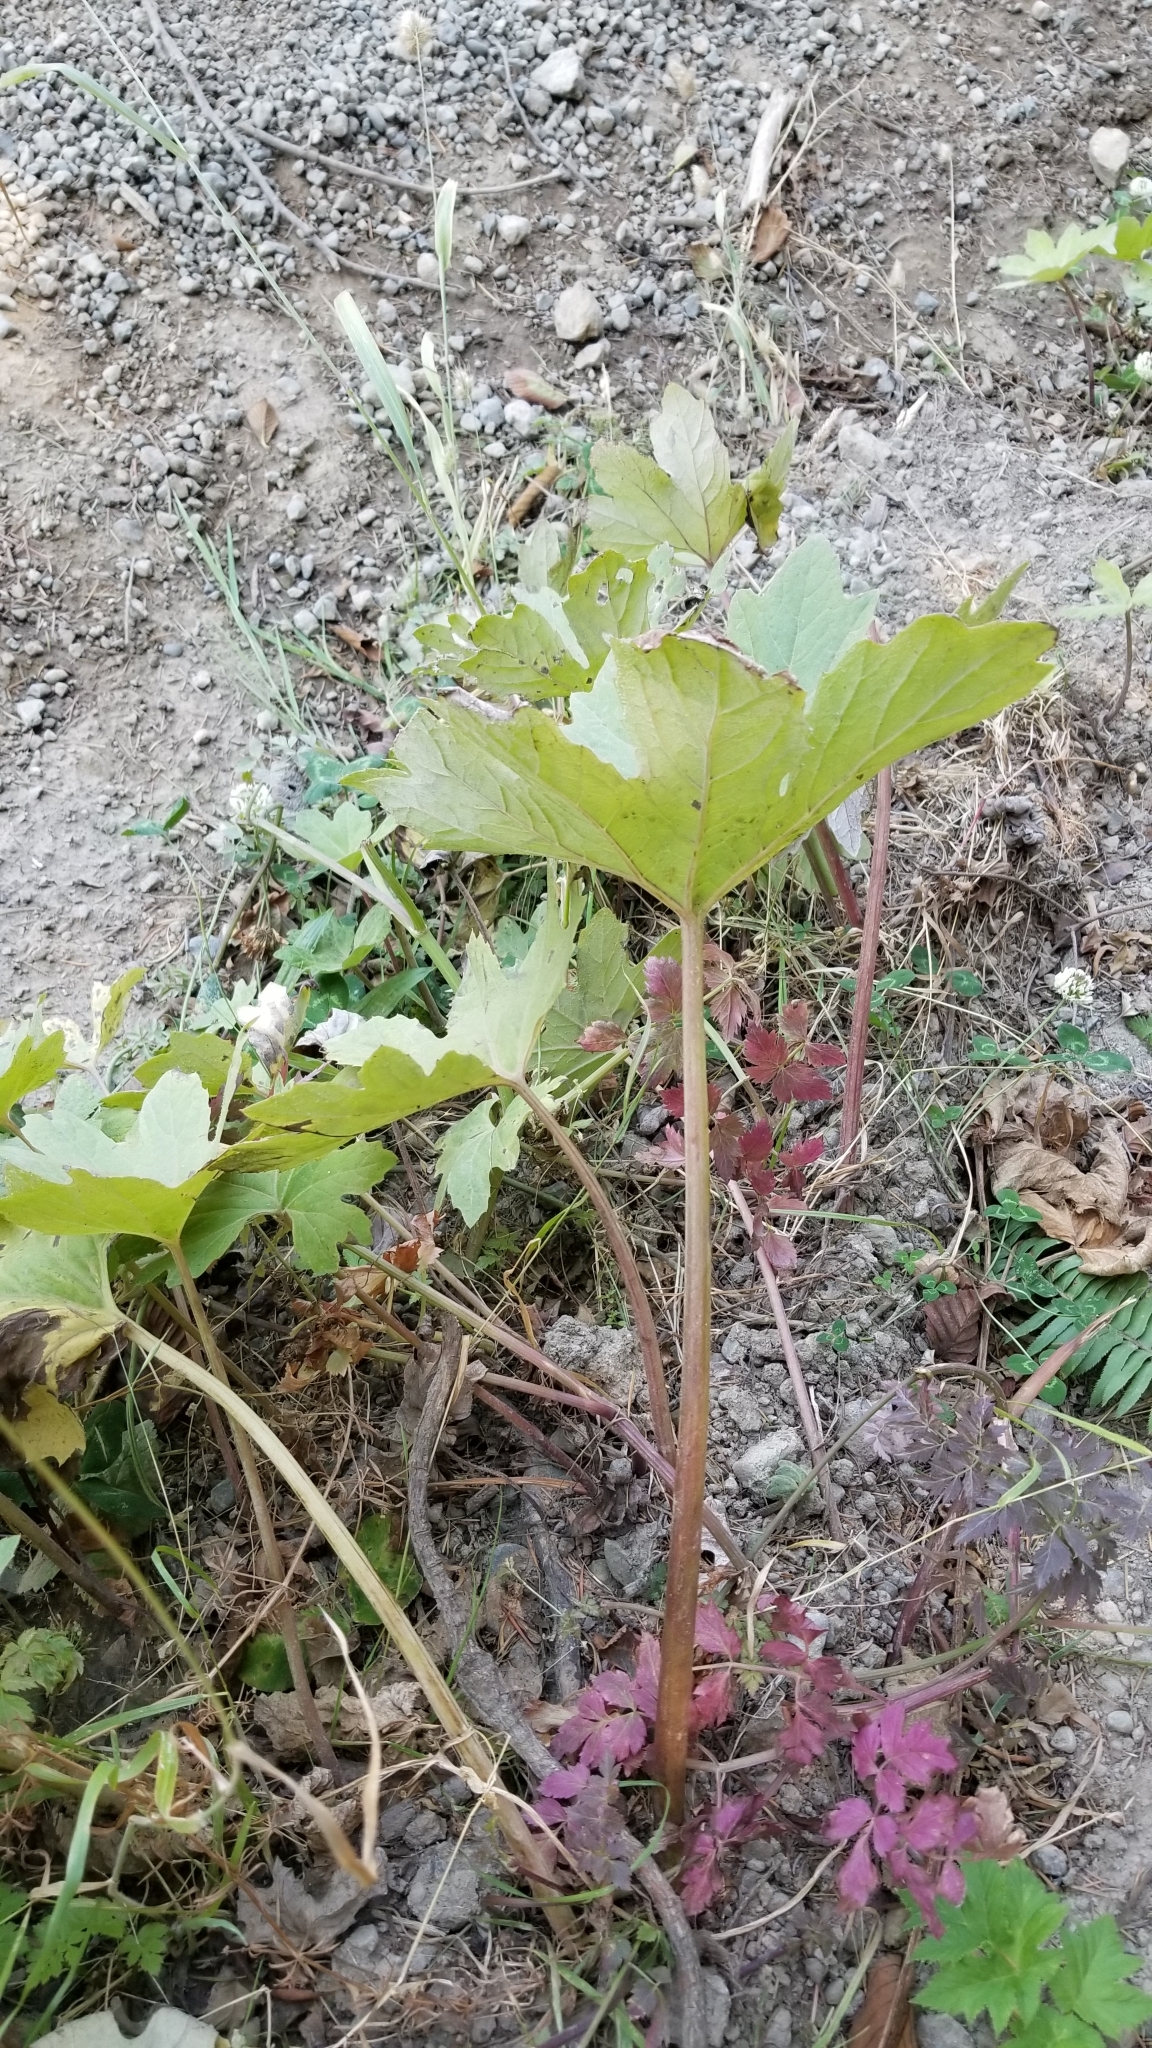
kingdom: Plantae
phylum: Tracheophyta
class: Magnoliopsida
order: Asterales
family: Asteraceae
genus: Petasites
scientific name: Petasites frigidus
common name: Arctic butterbur
